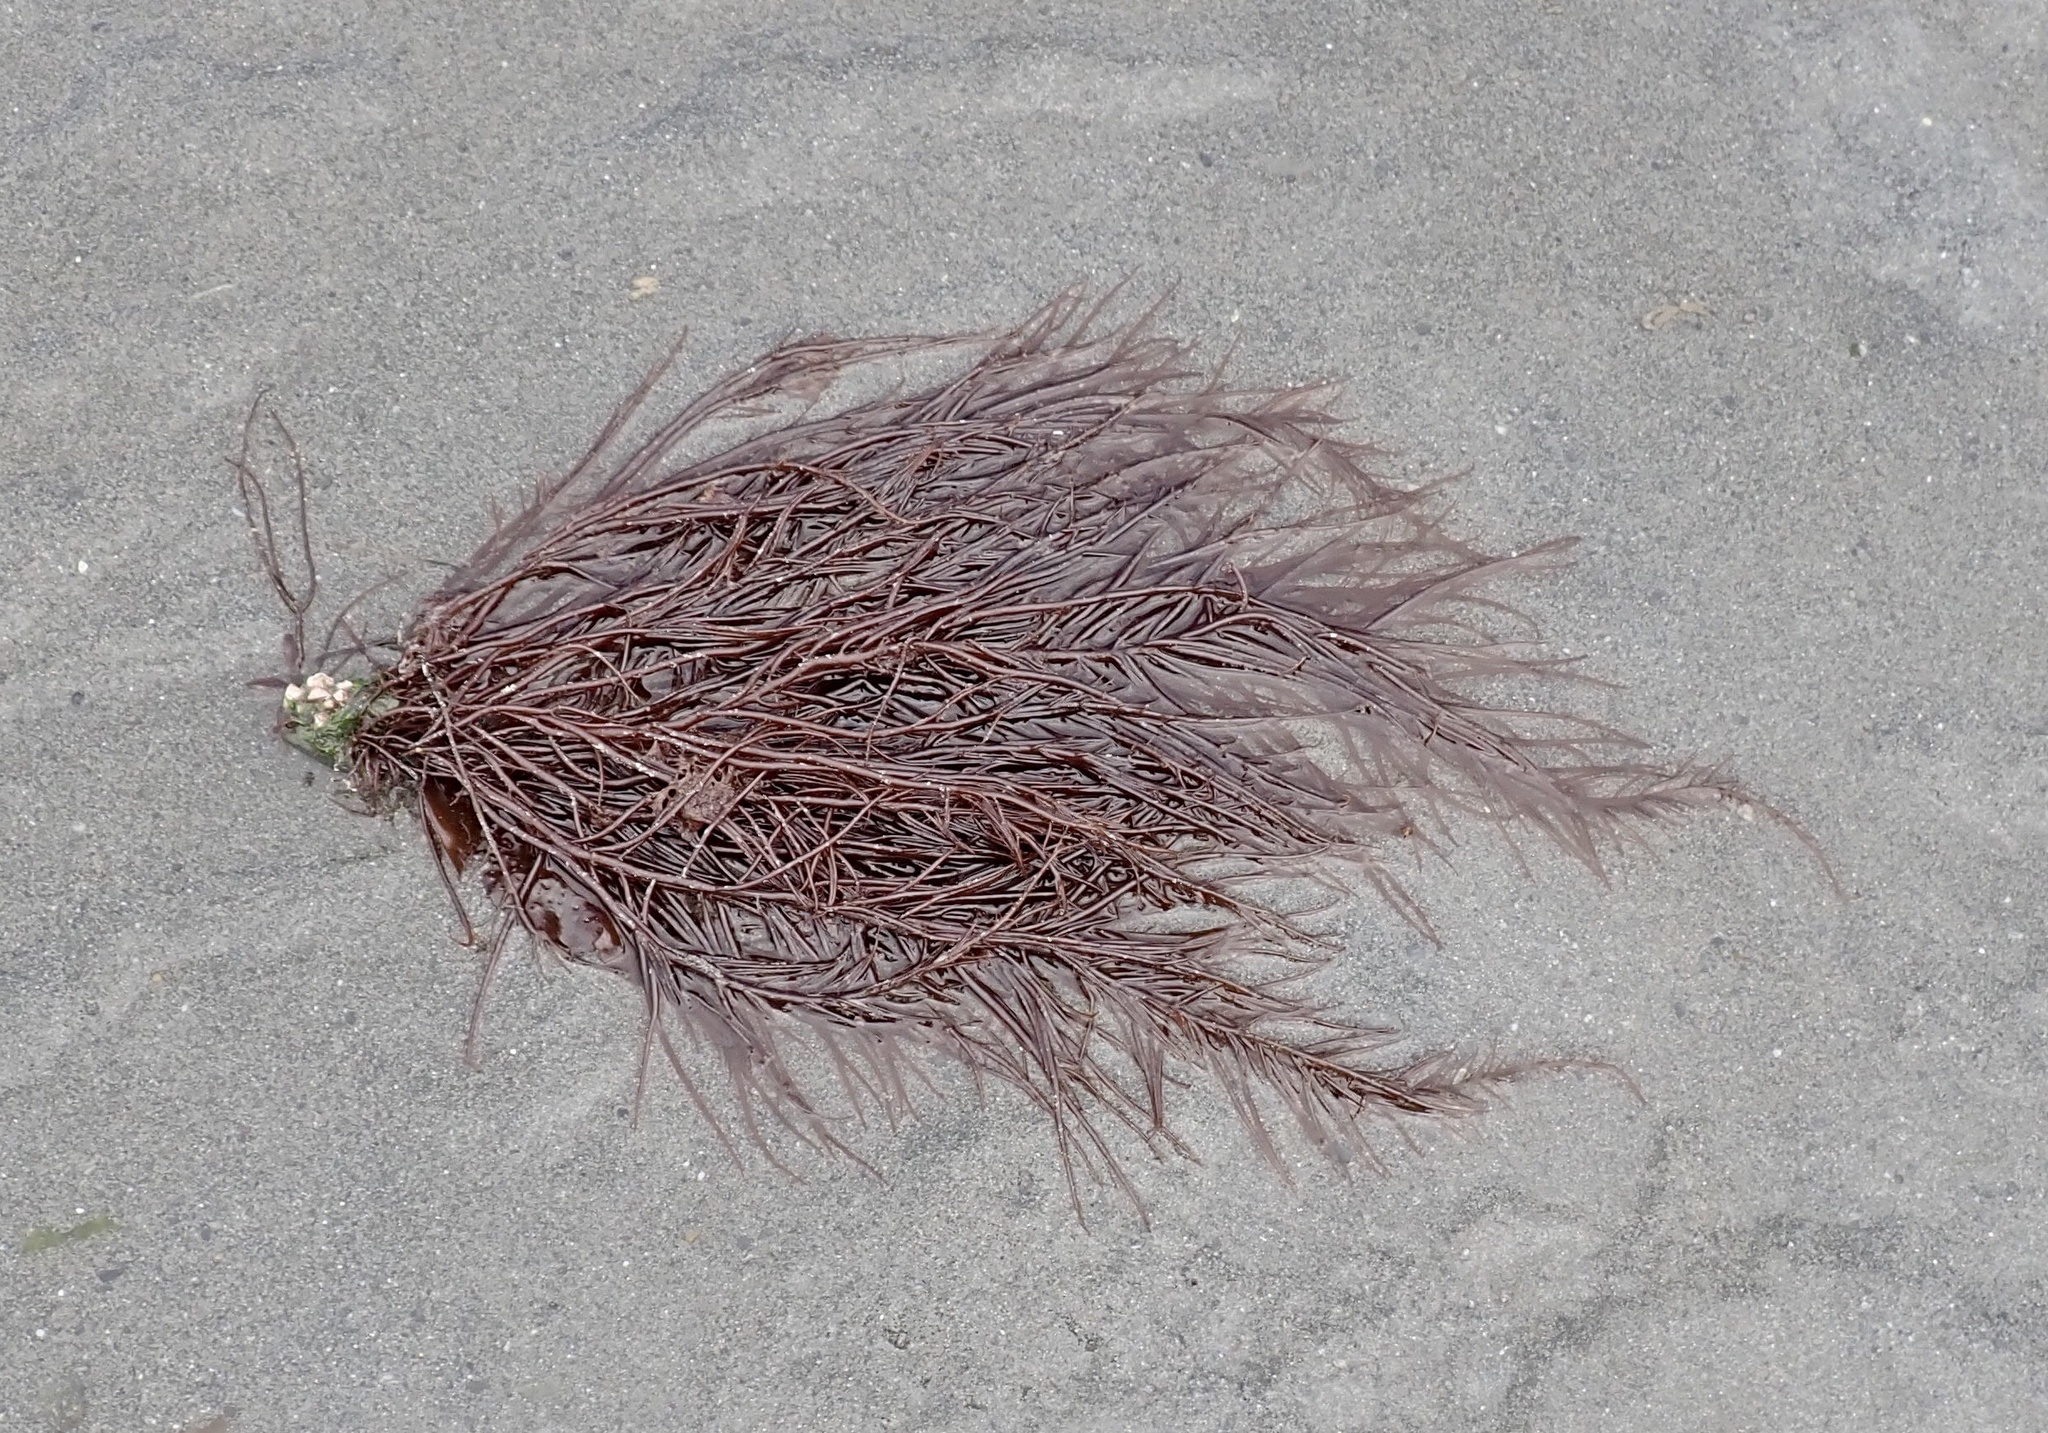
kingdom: Plantae
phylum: Rhodophyta
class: Florideophyceae
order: Gigartinales
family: Solieriaceae
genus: Sarcodiotheca
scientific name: Sarcodiotheca gaudichaudii
